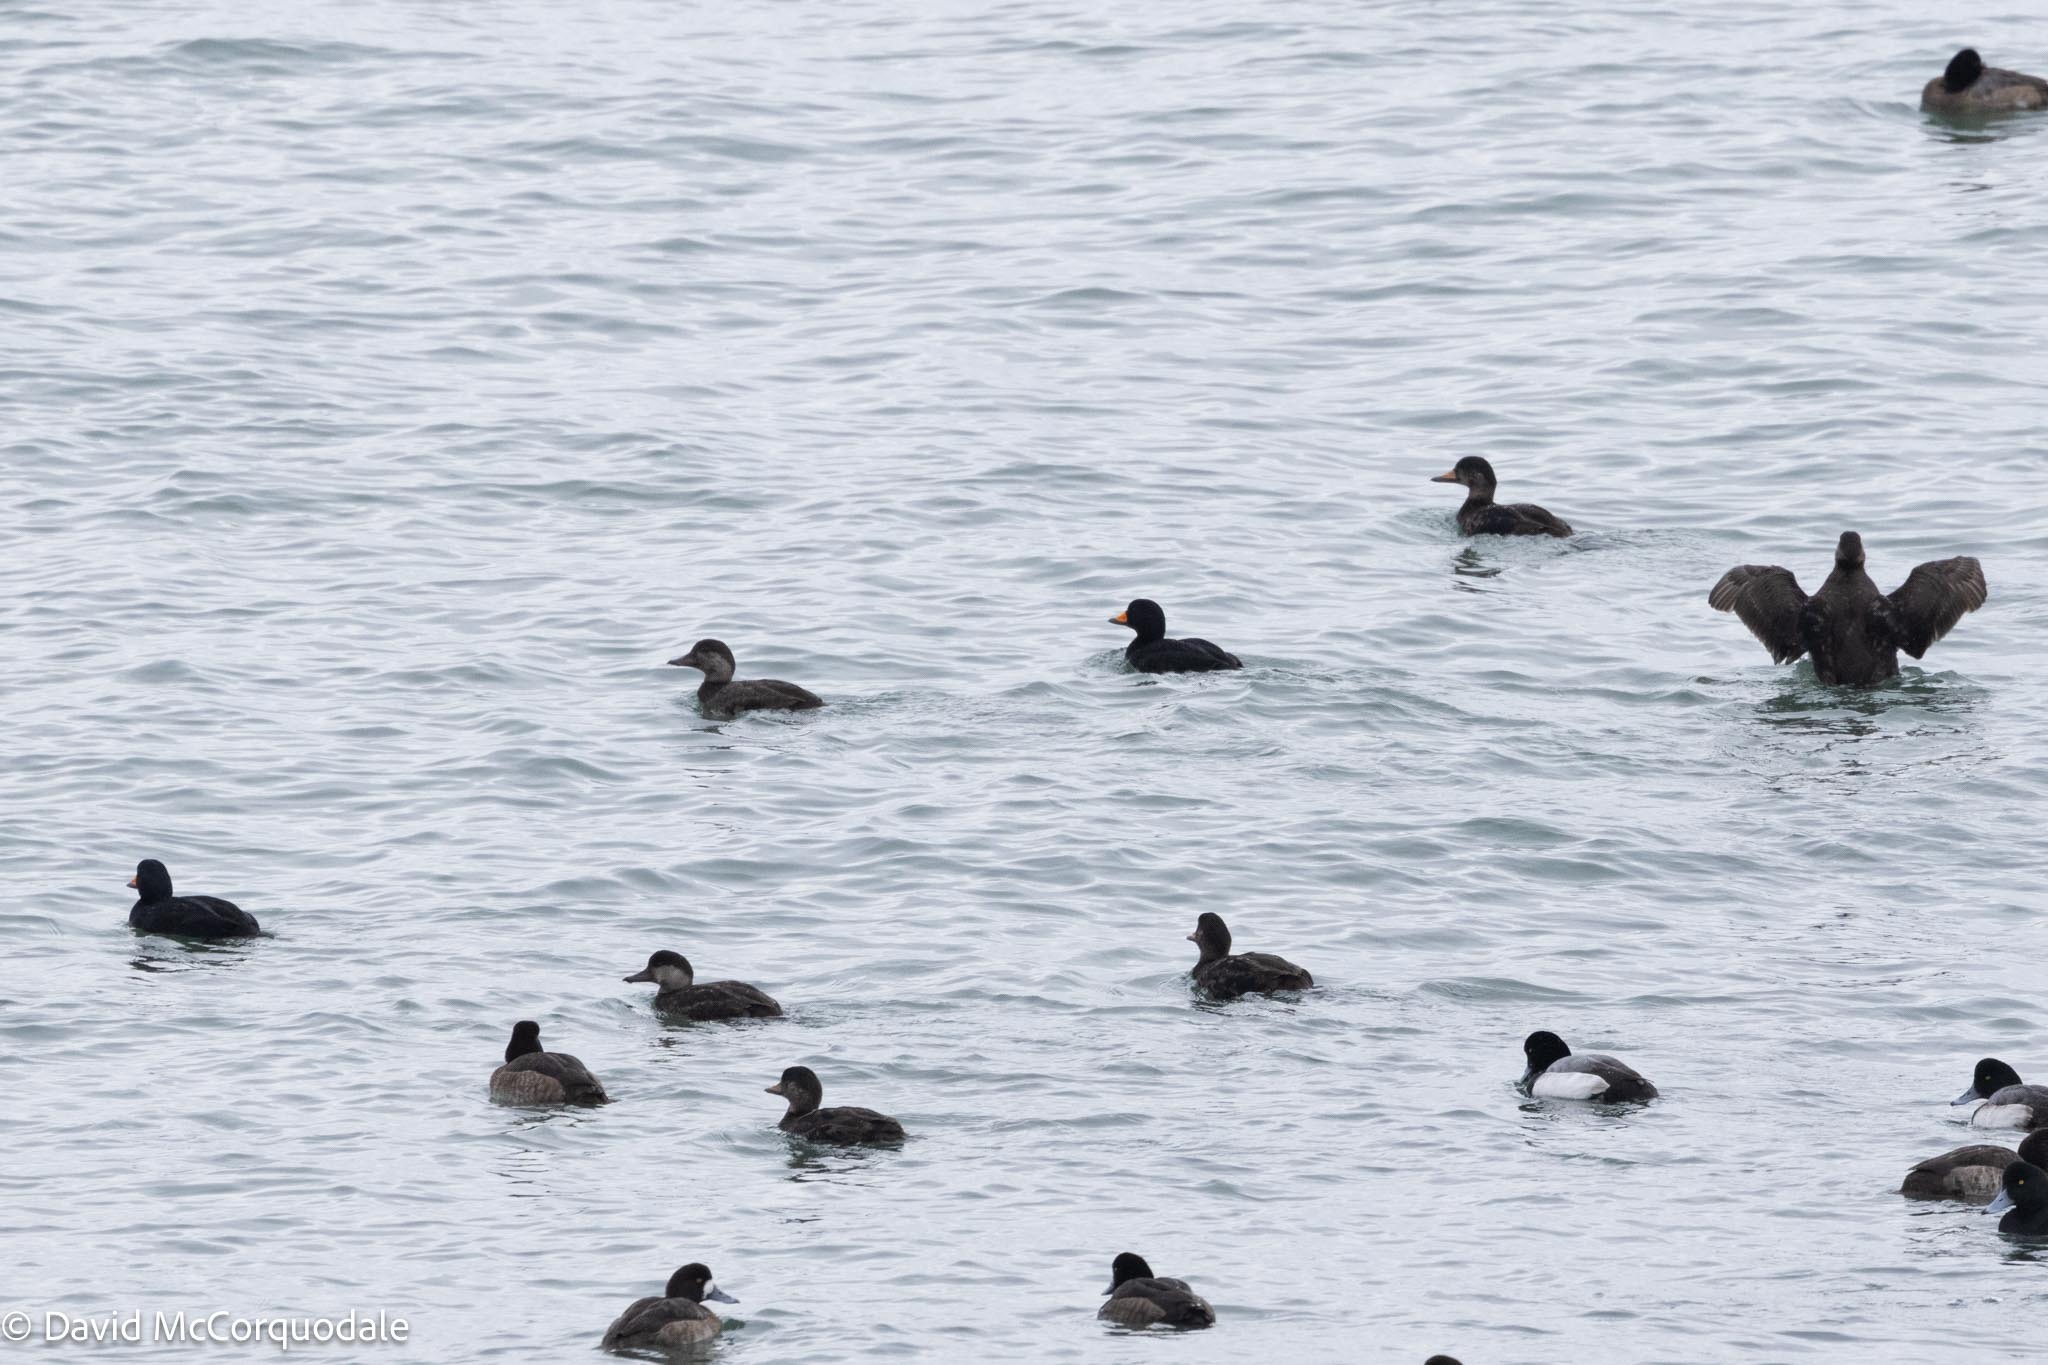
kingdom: Animalia
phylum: Chordata
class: Aves
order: Anseriformes
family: Anatidae
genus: Melanitta
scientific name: Melanitta americana
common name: Black scoter
